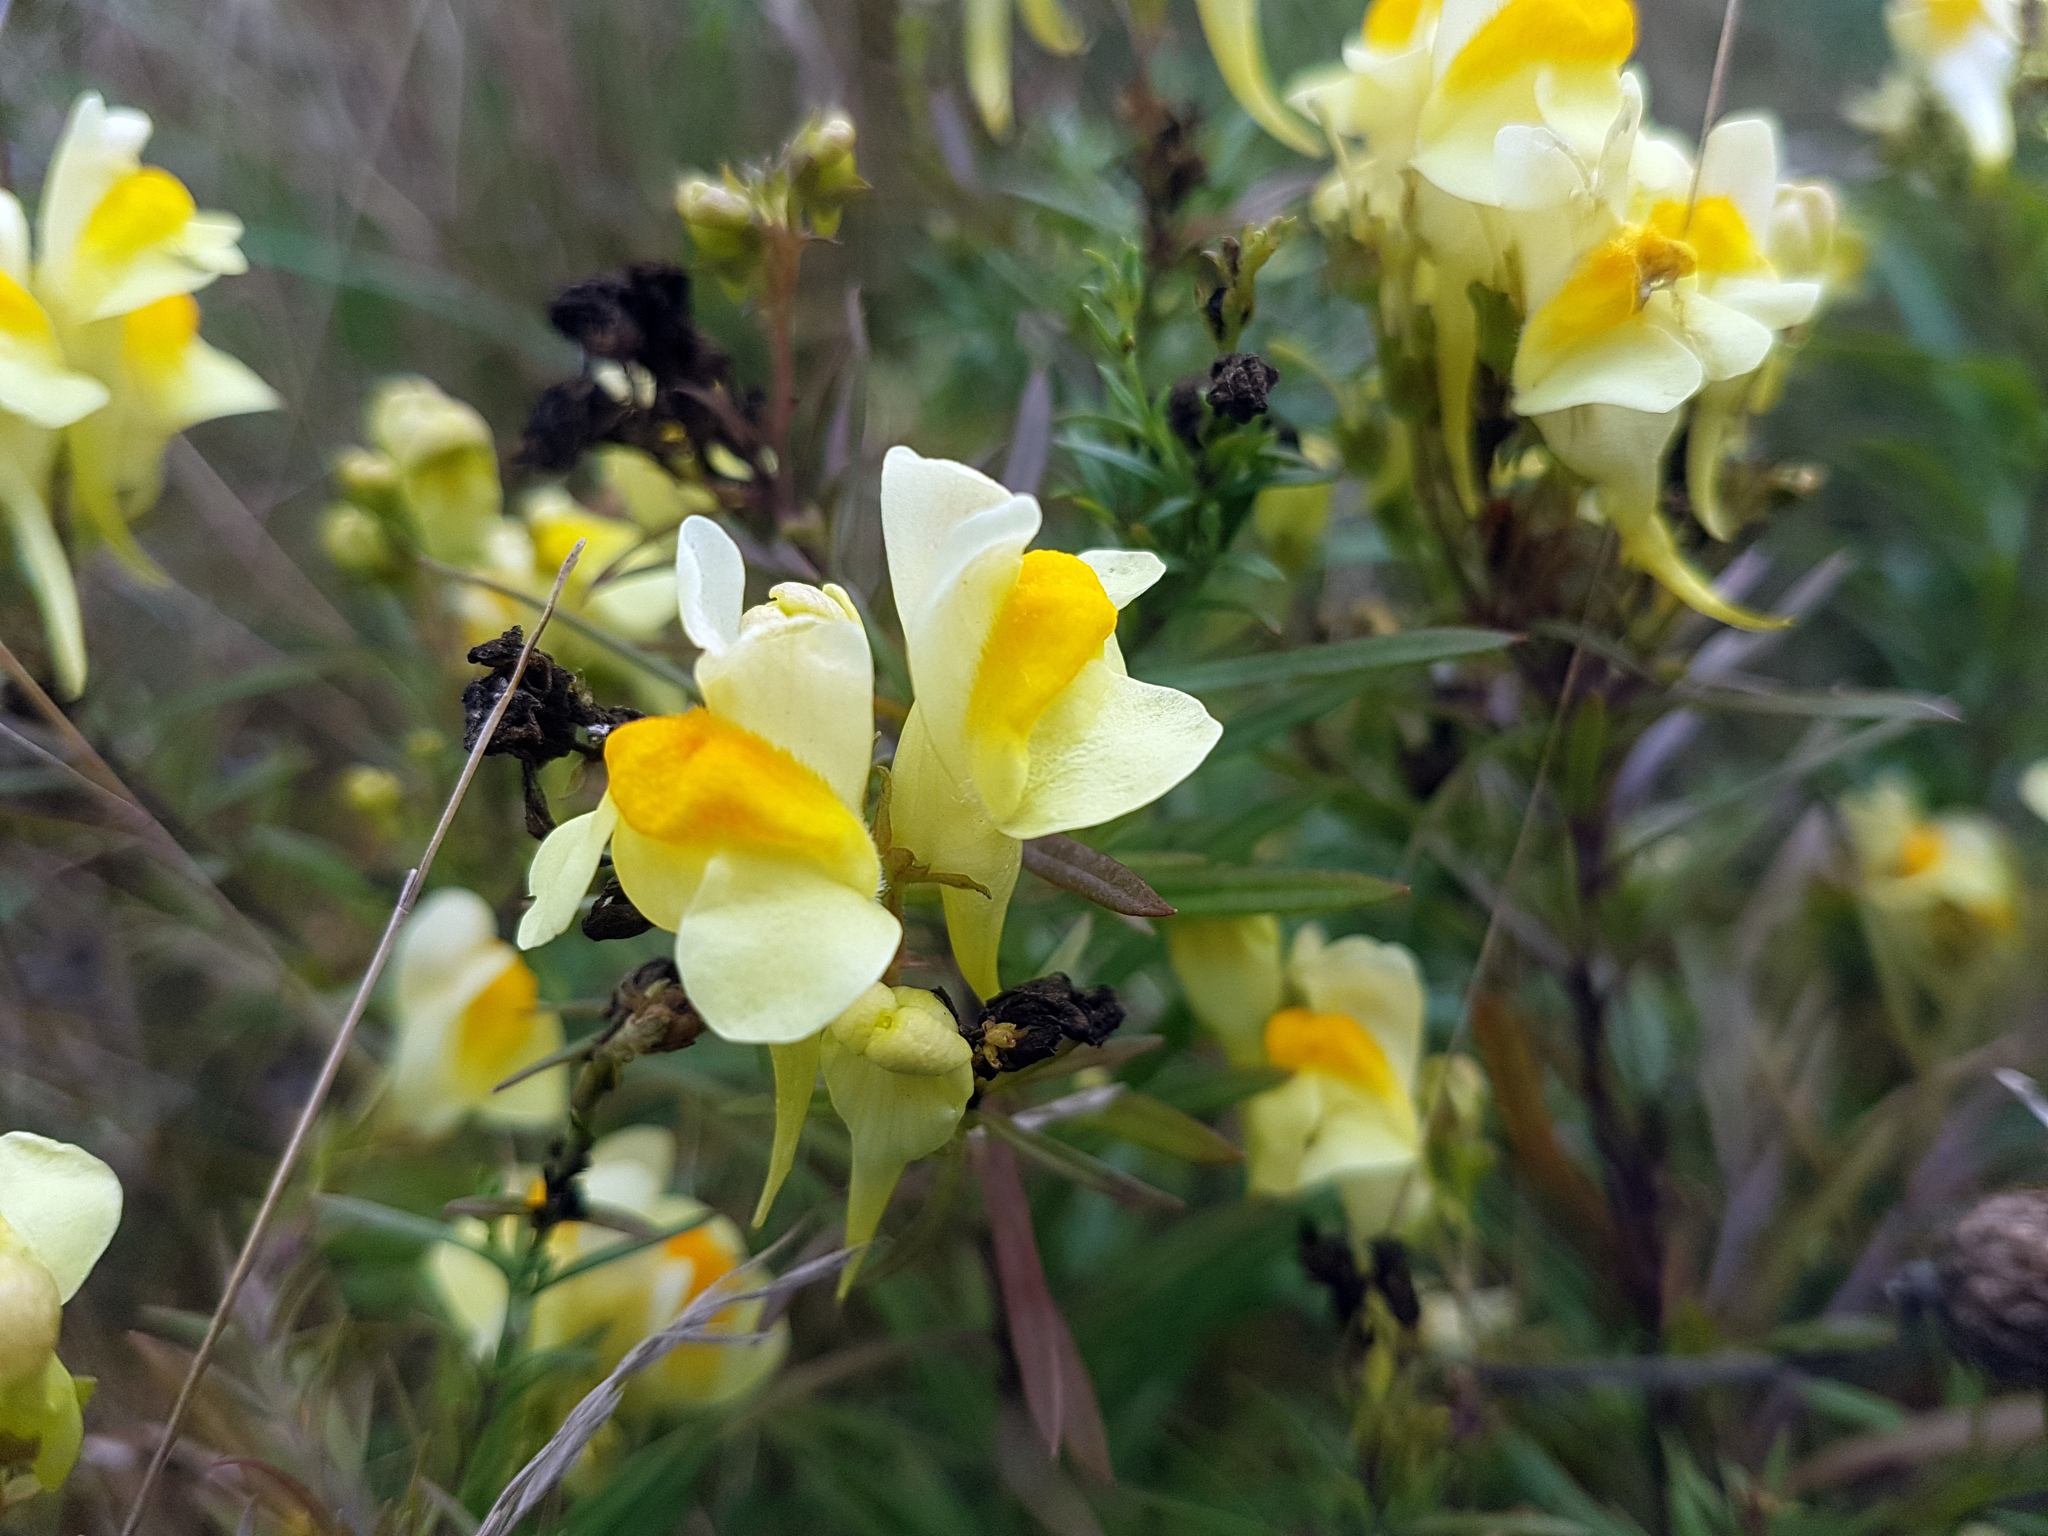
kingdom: Plantae
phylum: Tracheophyta
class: Magnoliopsida
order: Lamiales
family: Plantaginaceae
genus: Linaria
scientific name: Linaria vulgaris
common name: Butter and eggs
